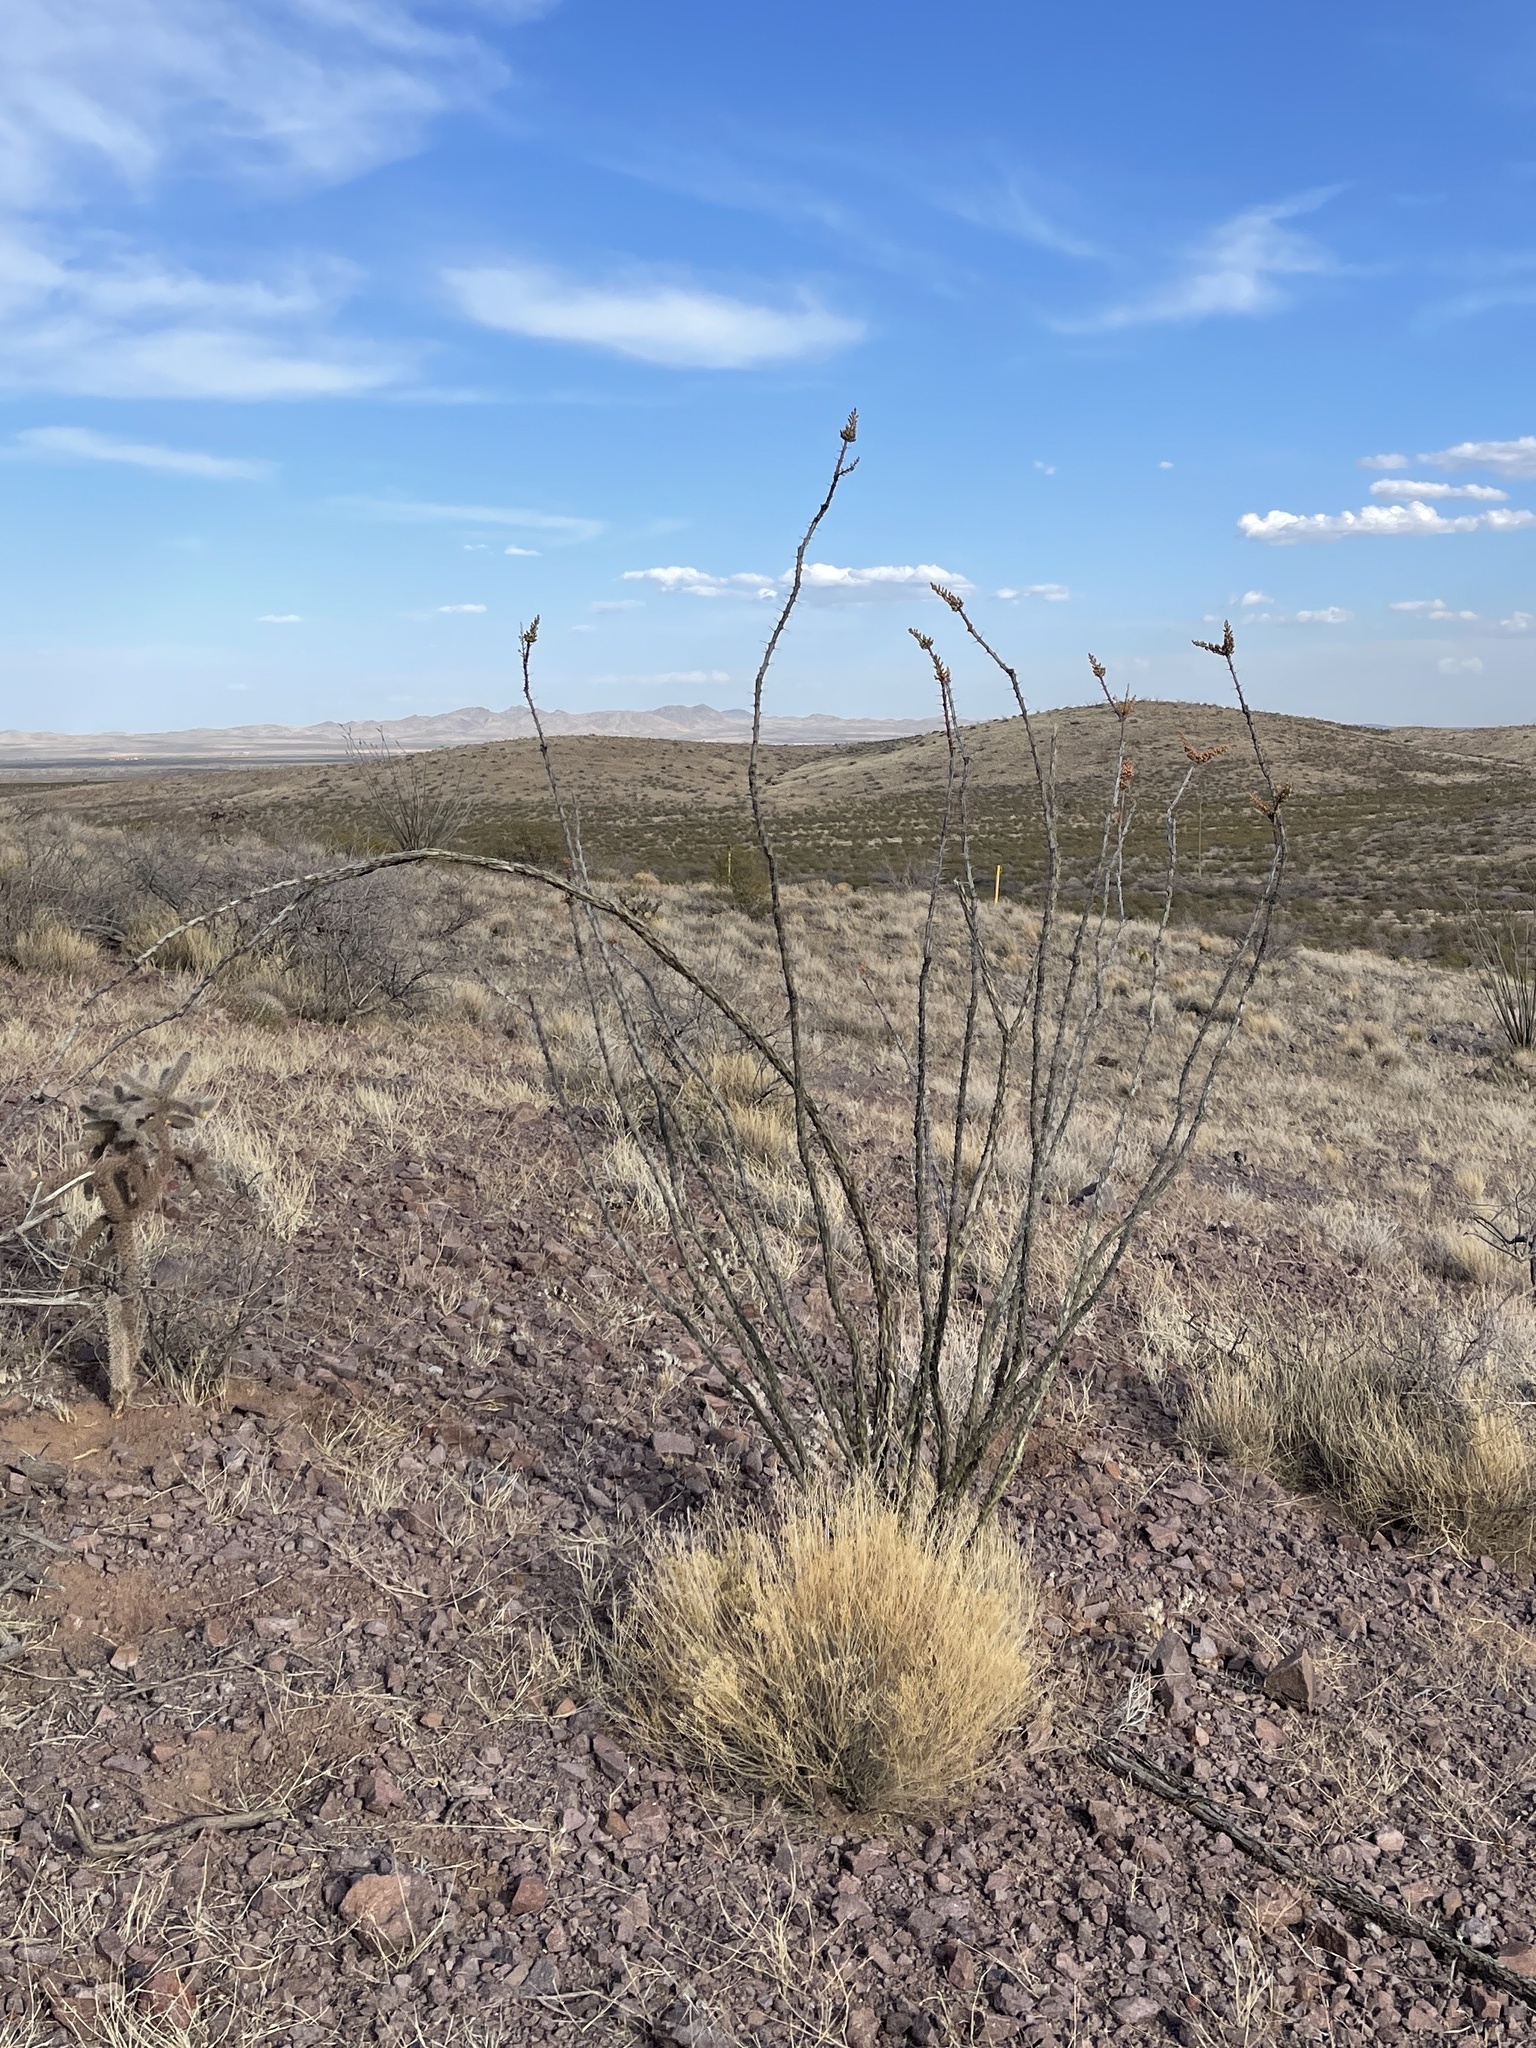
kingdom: Plantae
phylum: Tracheophyta
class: Magnoliopsida
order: Ericales
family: Fouquieriaceae
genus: Fouquieria
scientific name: Fouquieria splendens
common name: Vine-cactus
